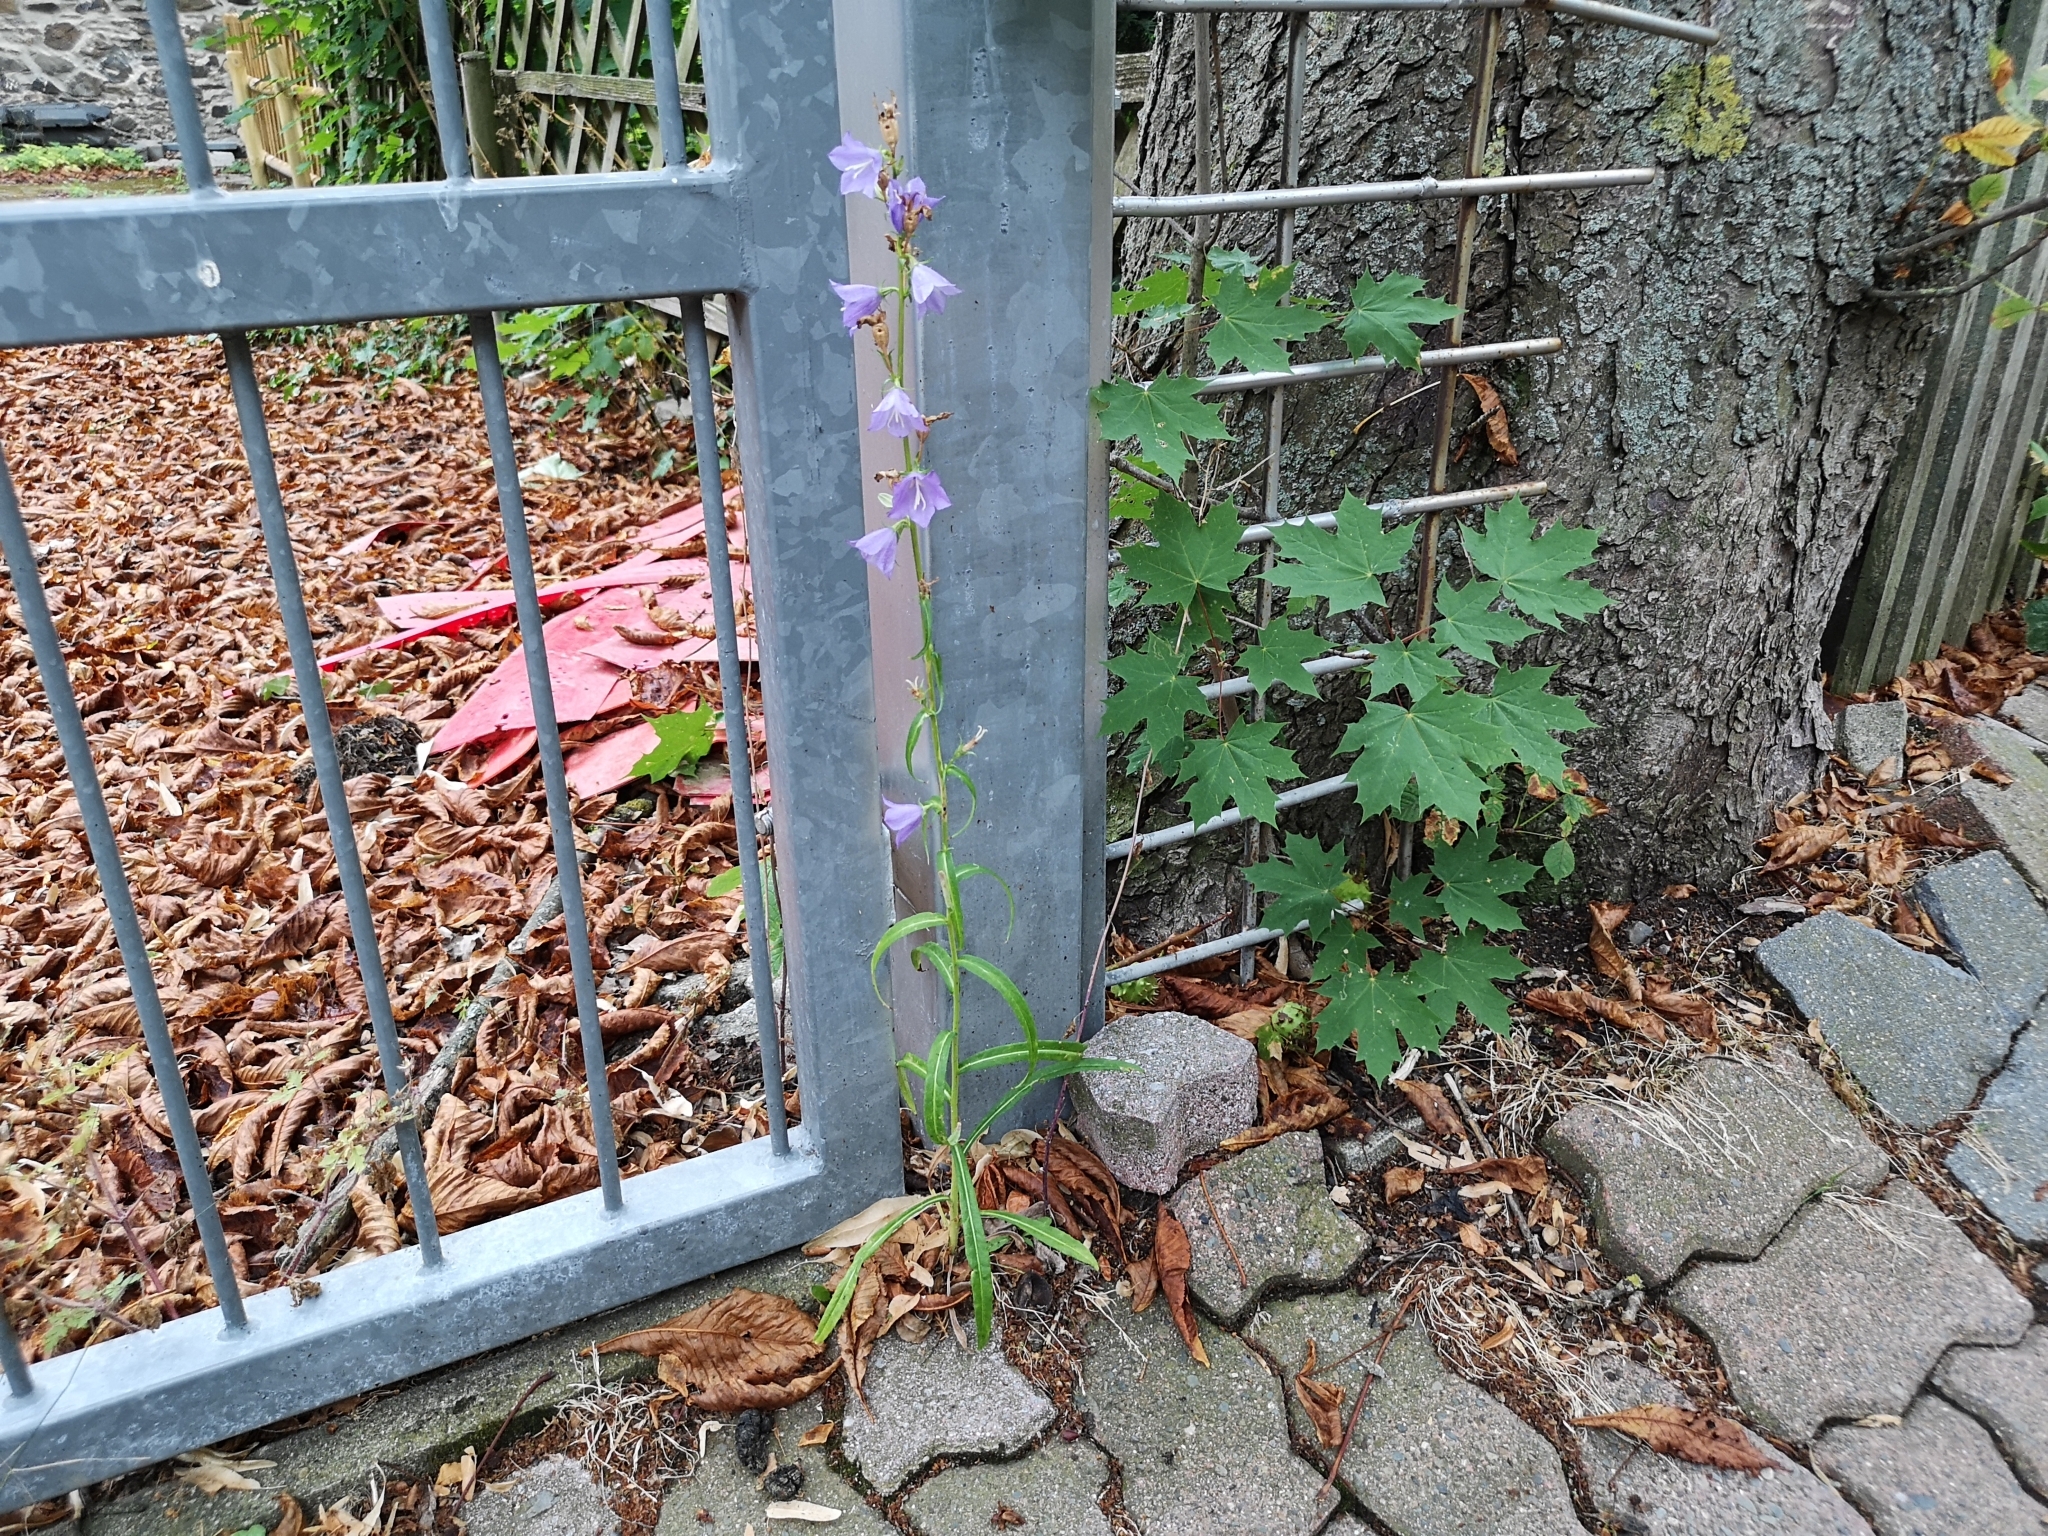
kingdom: Plantae
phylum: Tracheophyta
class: Magnoliopsida
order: Asterales
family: Campanulaceae
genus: Campanula
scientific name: Campanula persicifolia
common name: Peach-leaved bellflower
